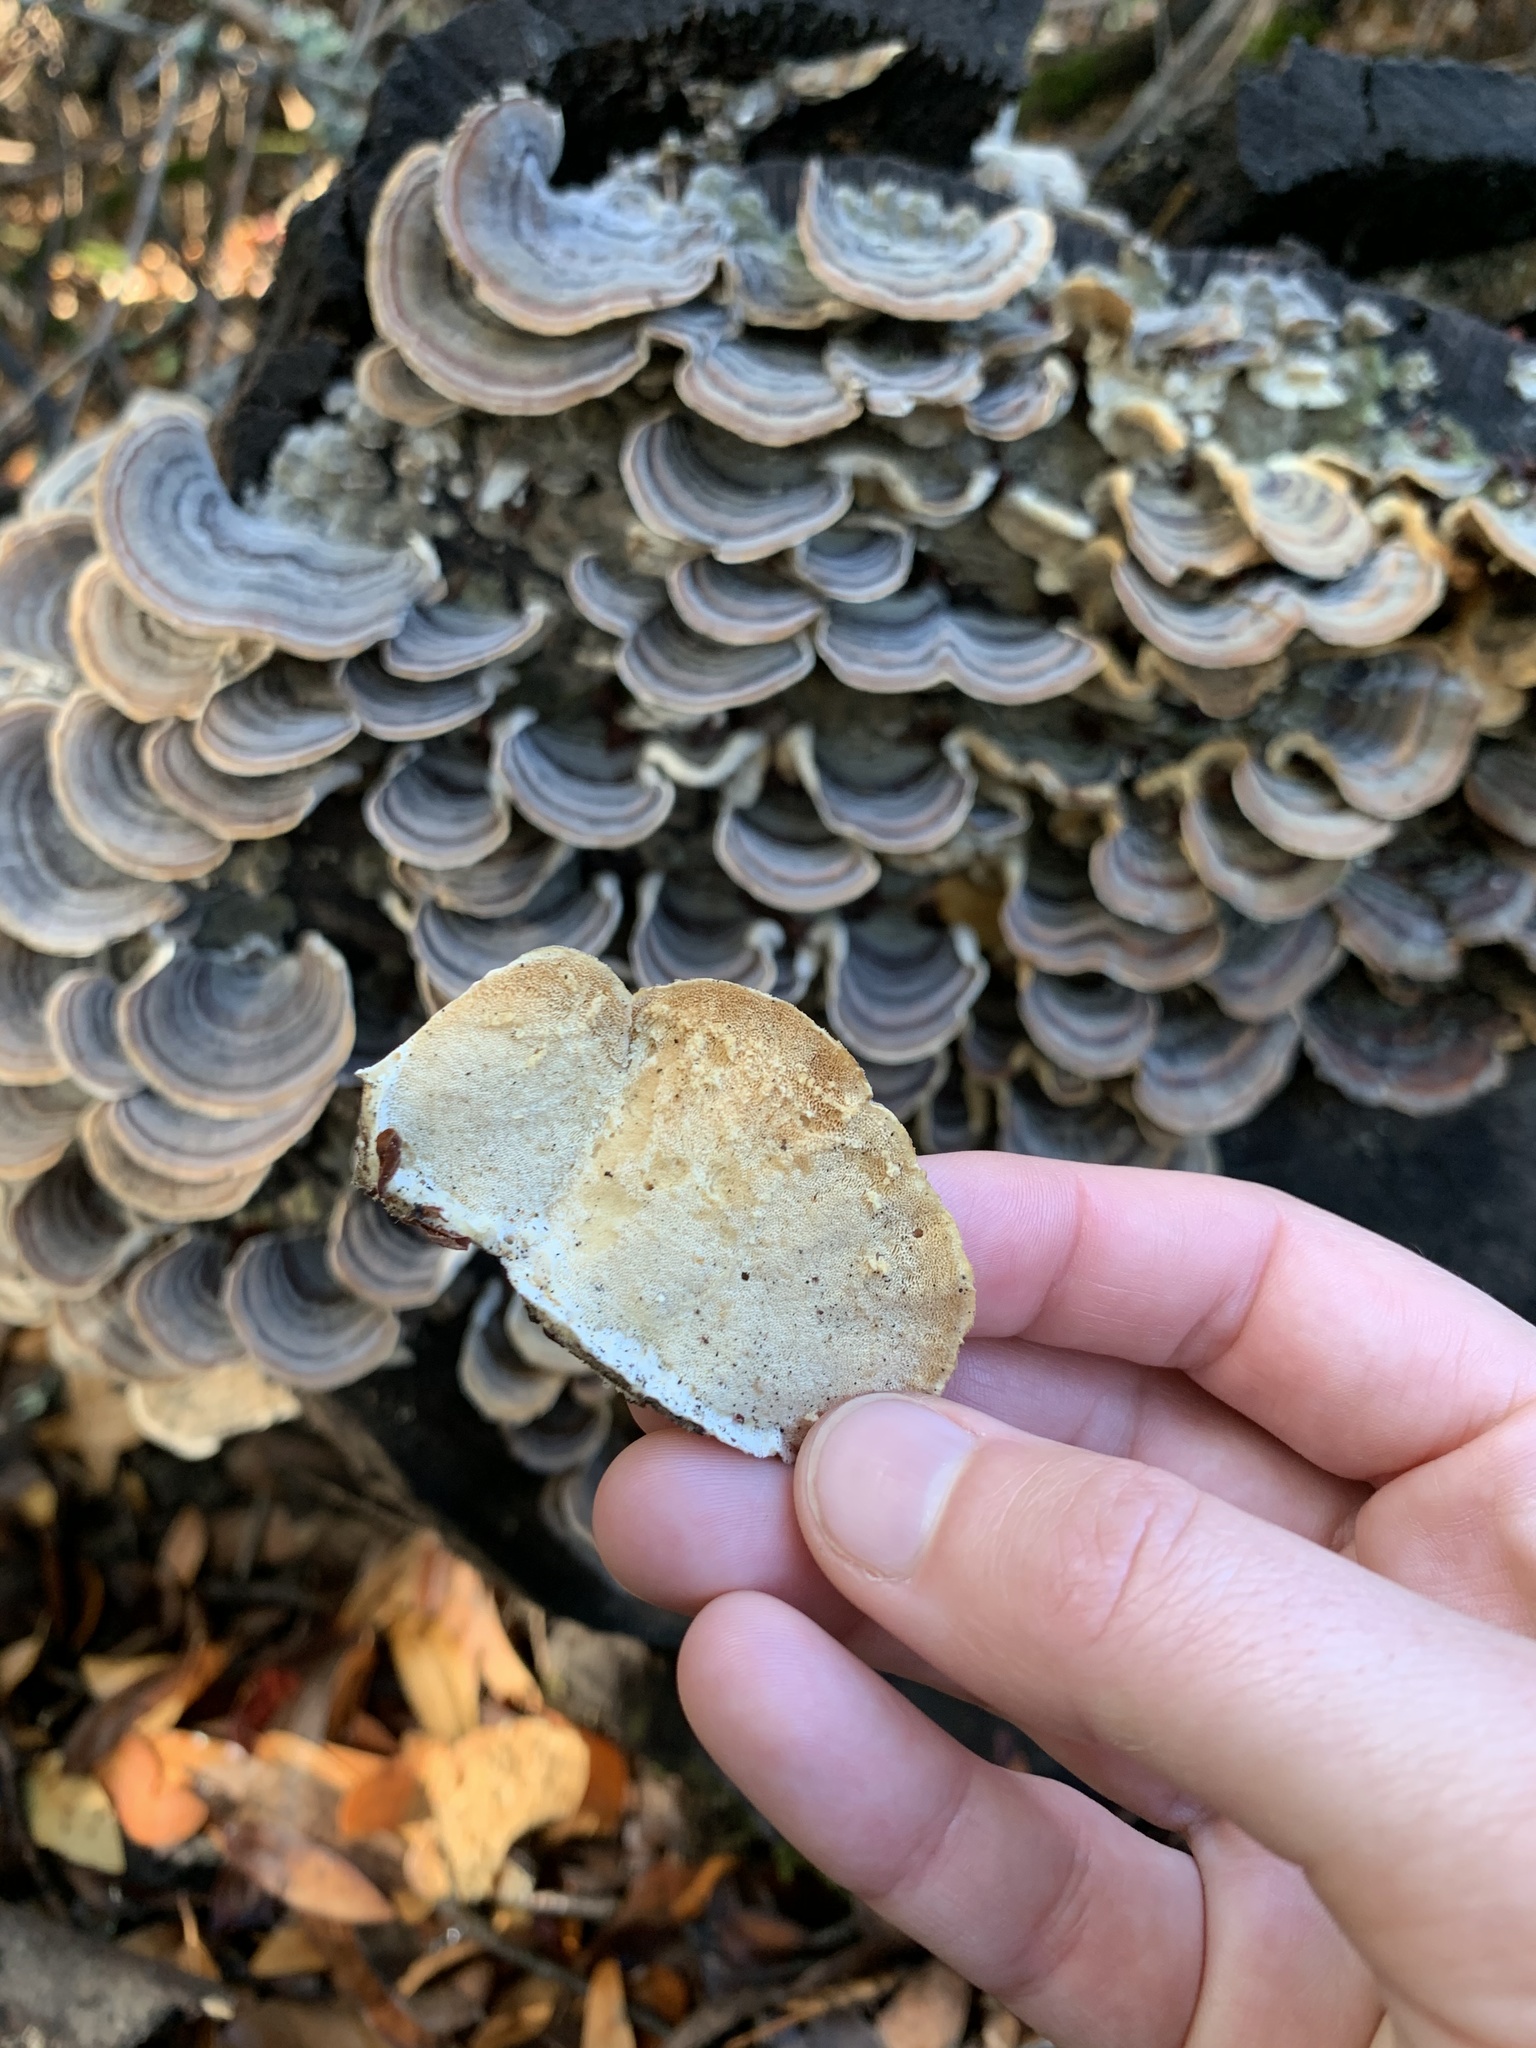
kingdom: Fungi
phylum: Basidiomycota
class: Agaricomycetes
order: Polyporales
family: Polyporaceae
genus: Trametes
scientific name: Trametes versicolor
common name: Turkeytail
